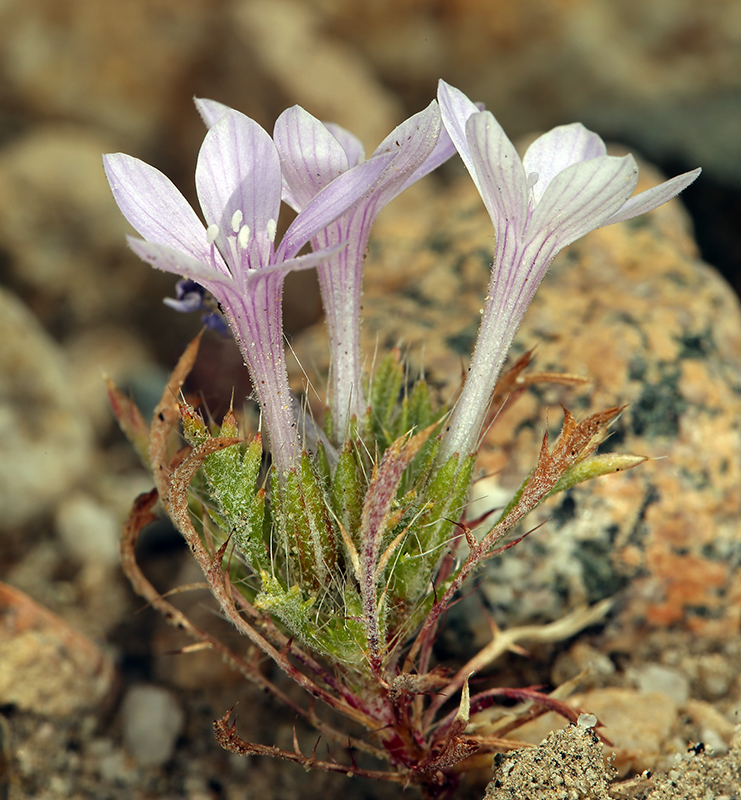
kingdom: Plantae
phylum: Tracheophyta
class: Magnoliopsida
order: Ericales
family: Polemoniaceae
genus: Langloisia
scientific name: Langloisia setosissima
